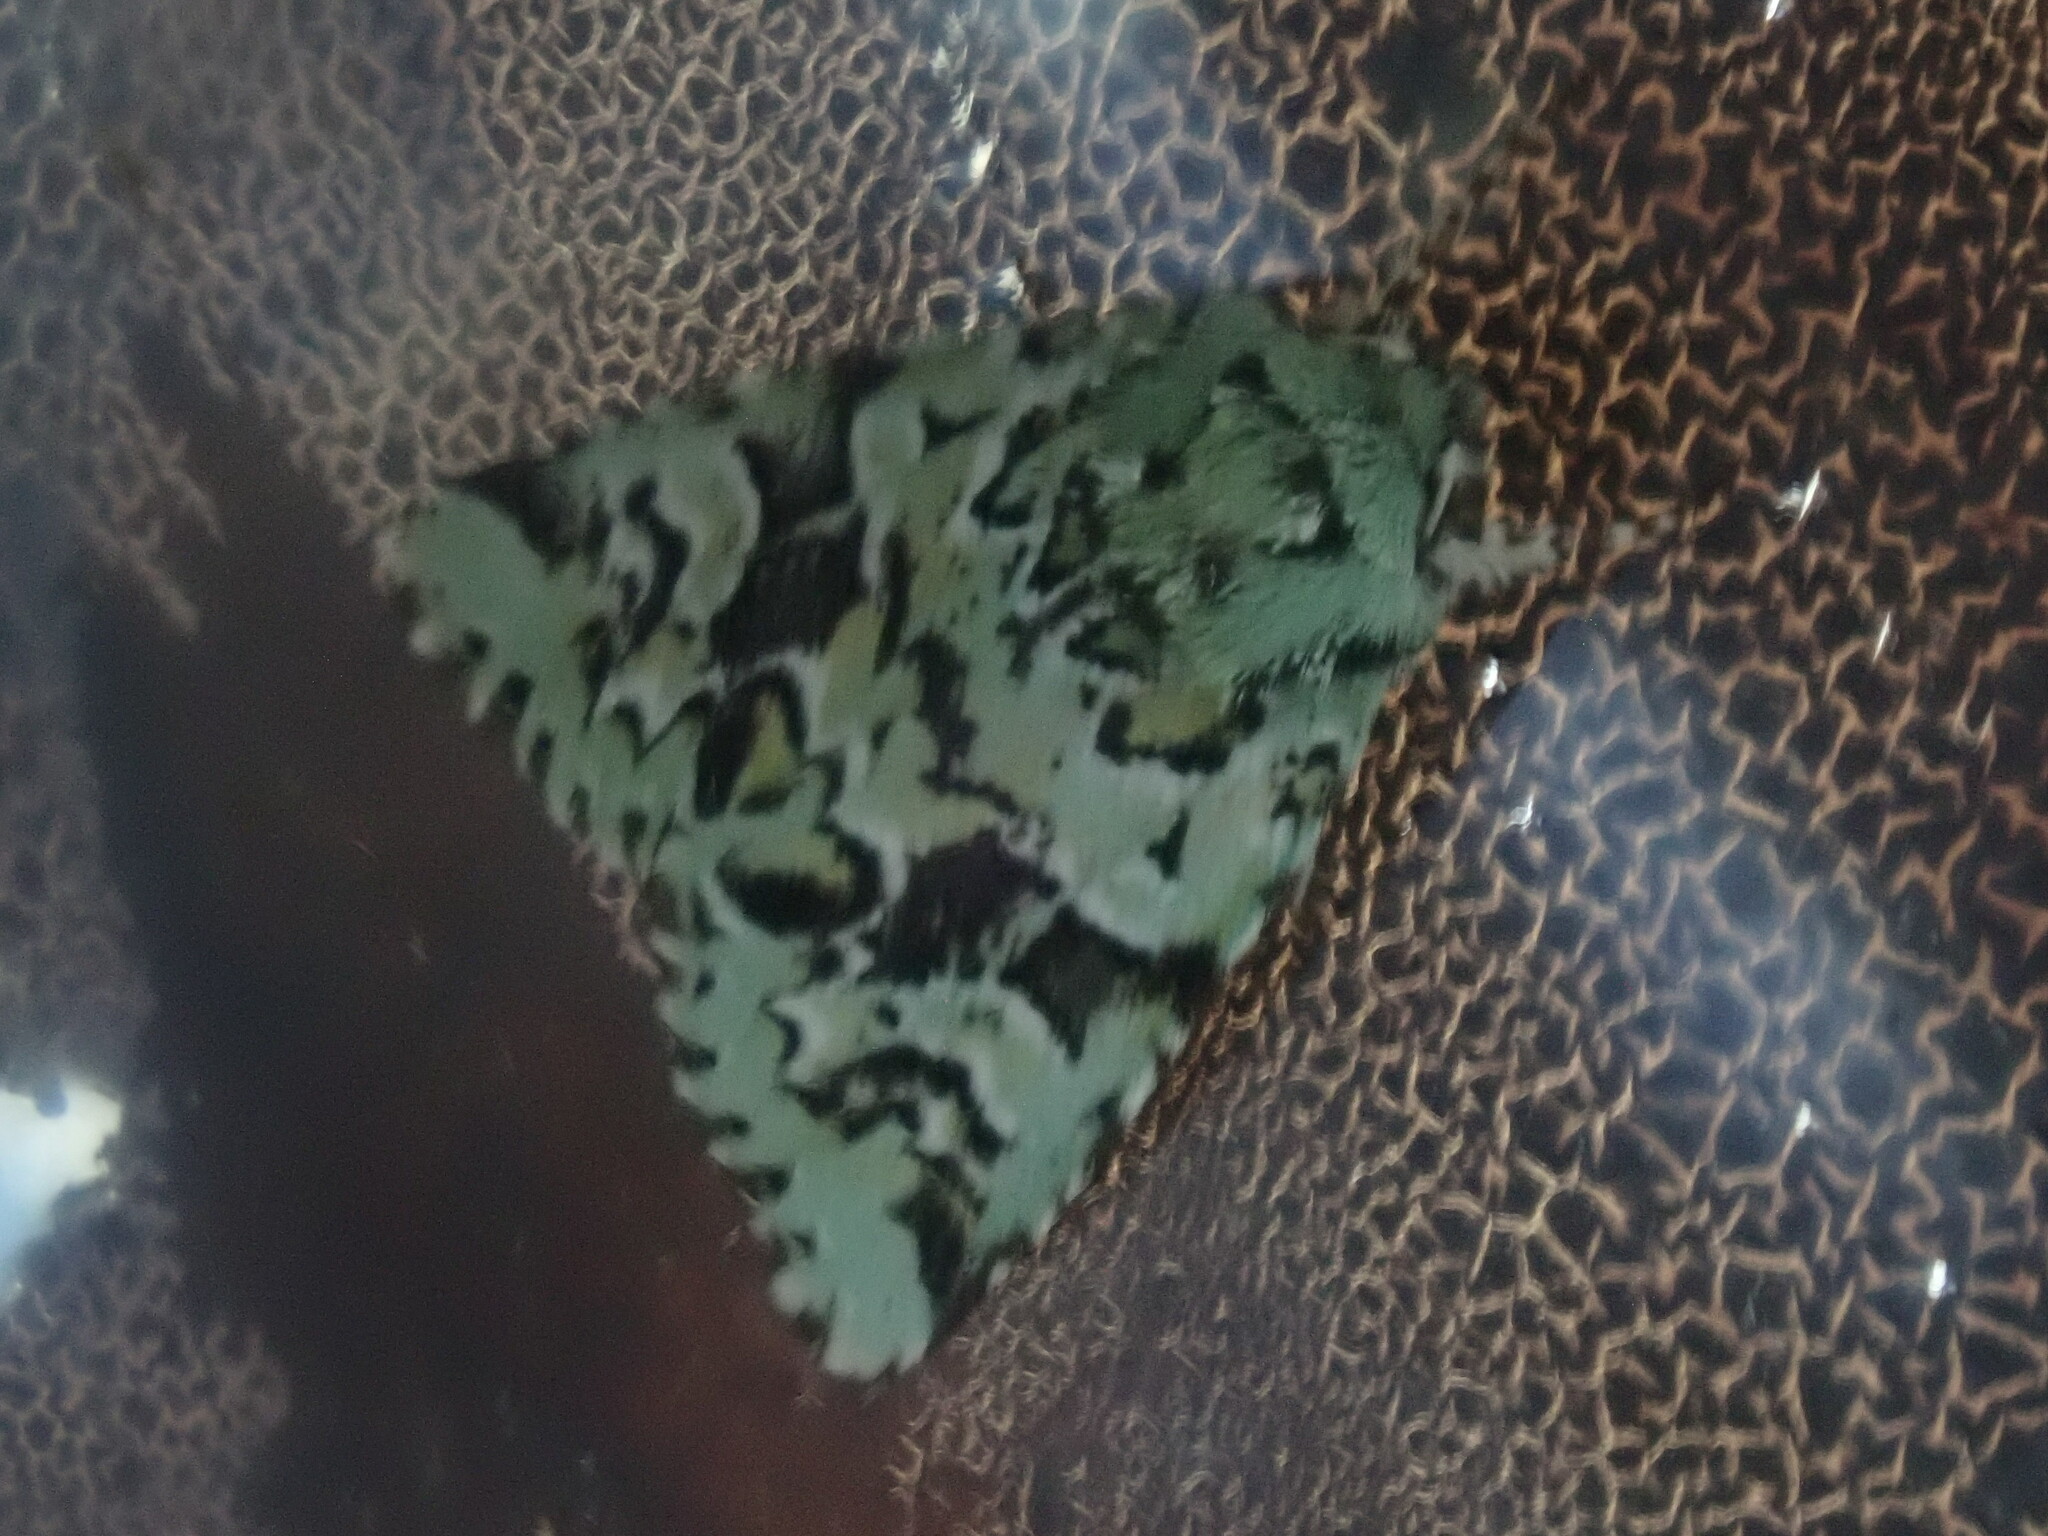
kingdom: Animalia
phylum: Arthropoda
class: Insecta
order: Lepidoptera
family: Noctuidae
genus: Feralia
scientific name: Feralia comstocki
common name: Comstock's sallow
